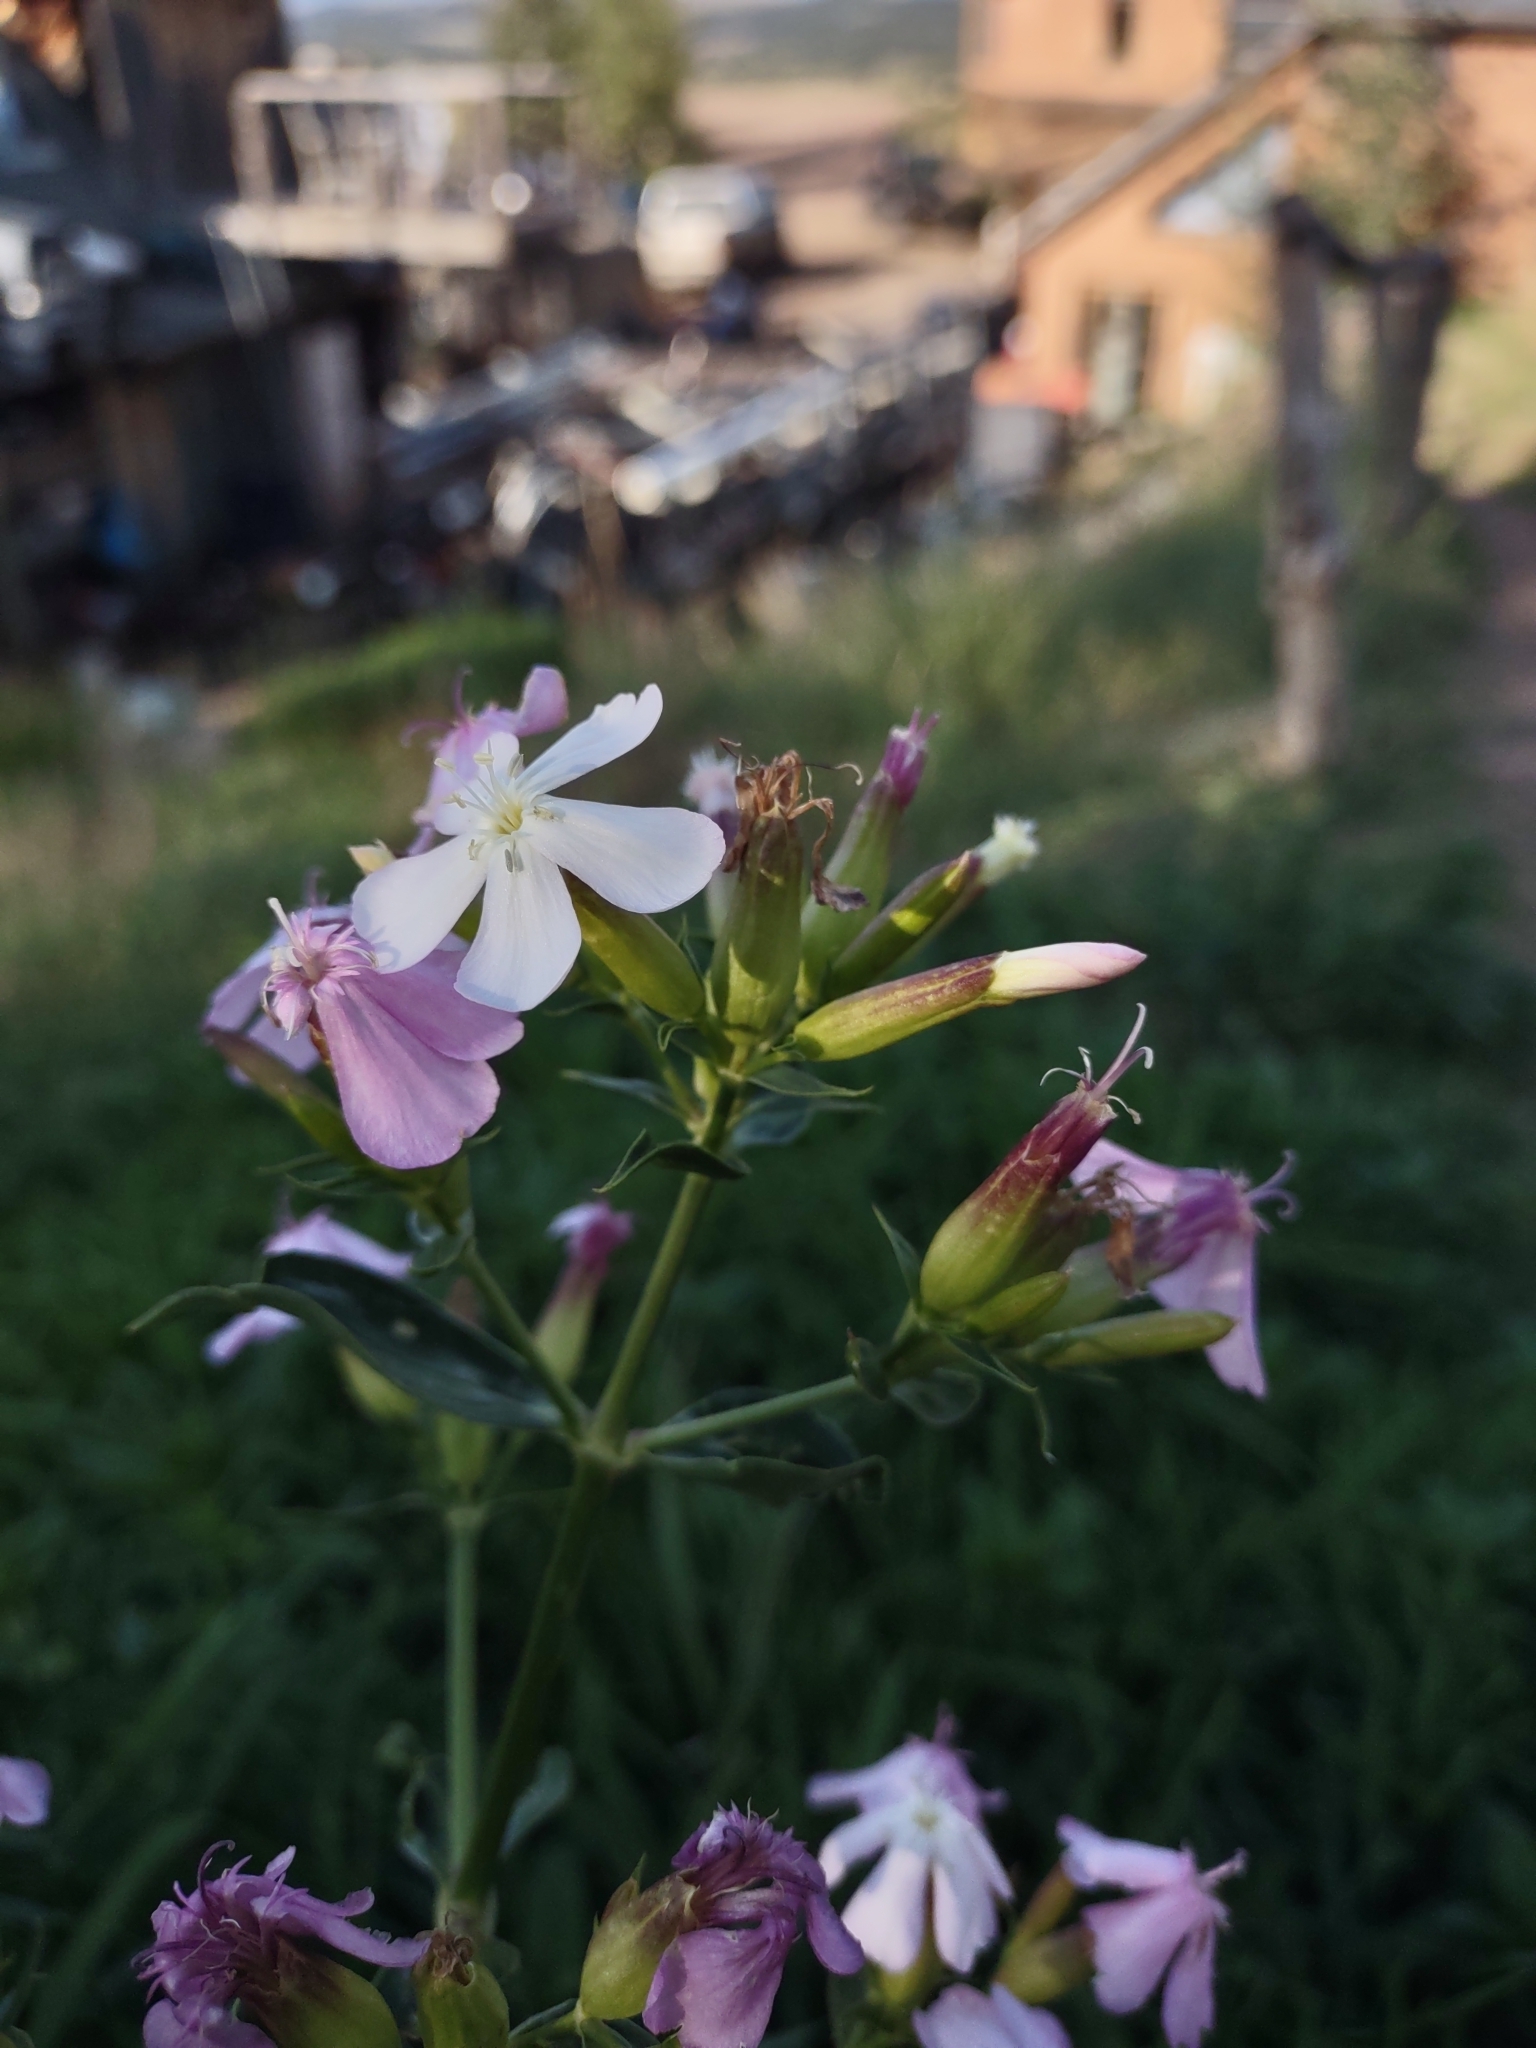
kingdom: Plantae
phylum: Tracheophyta
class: Magnoliopsida
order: Caryophyllales
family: Caryophyllaceae
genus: Saponaria
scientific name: Saponaria officinalis
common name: Soapwort
